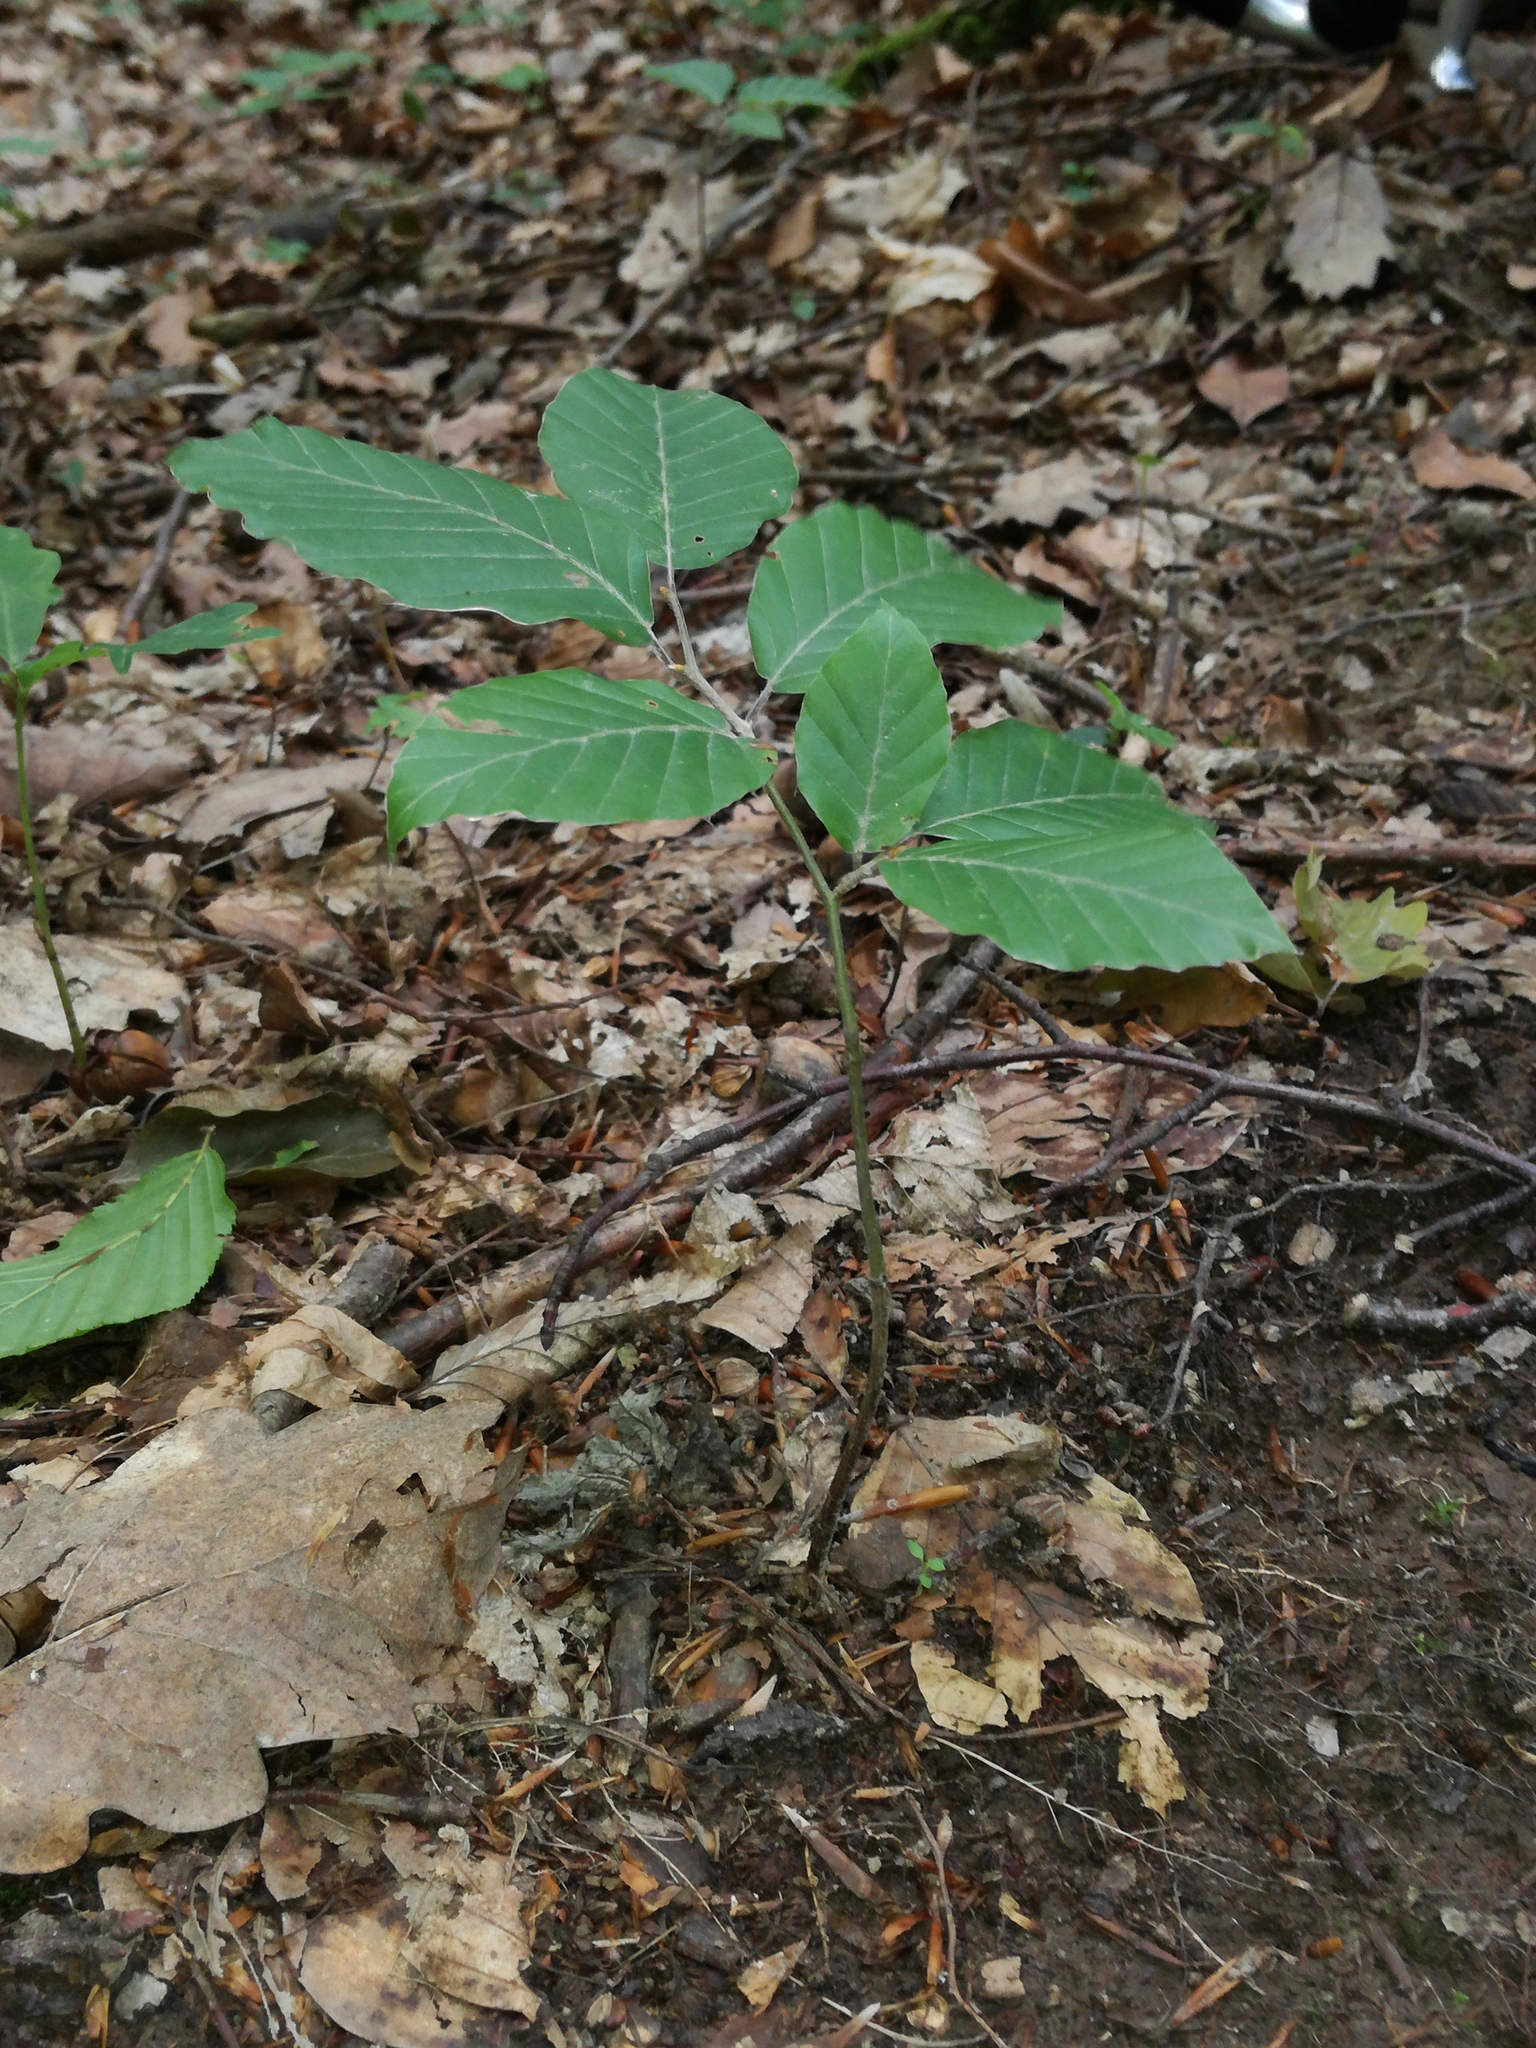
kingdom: Plantae
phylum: Tracheophyta
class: Magnoliopsida
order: Fagales
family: Fagaceae
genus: Fagus
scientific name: Fagus sylvatica
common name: Beech
